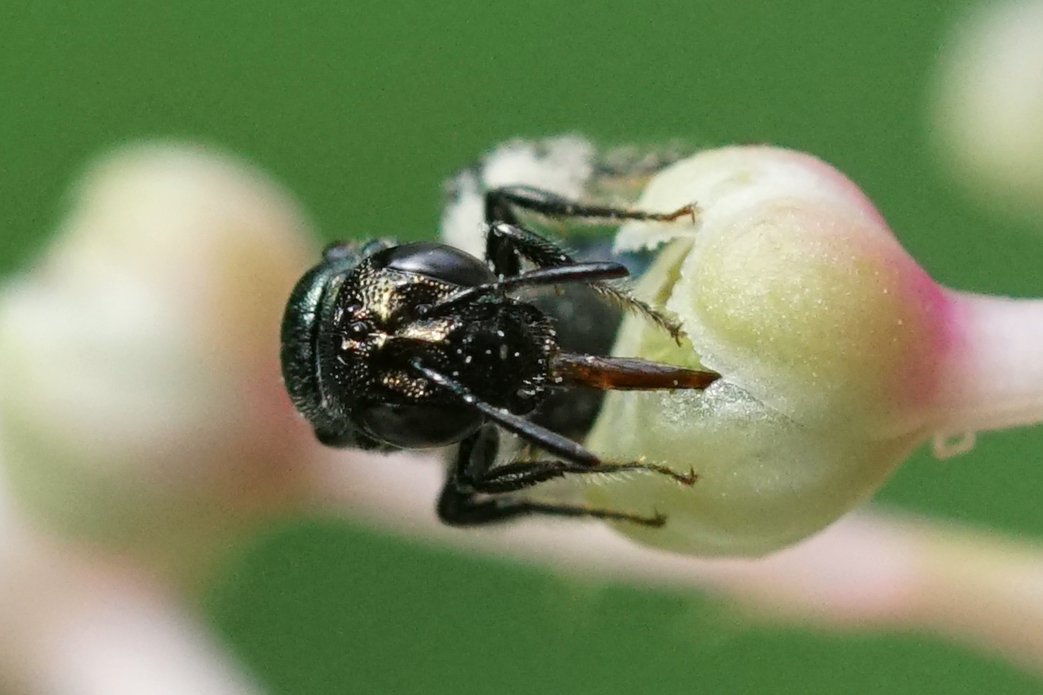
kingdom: Animalia
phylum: Arthropoda
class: Insecta
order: Hymenoptera
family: Apidae
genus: Zadontomerus
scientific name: Zadontomerus
